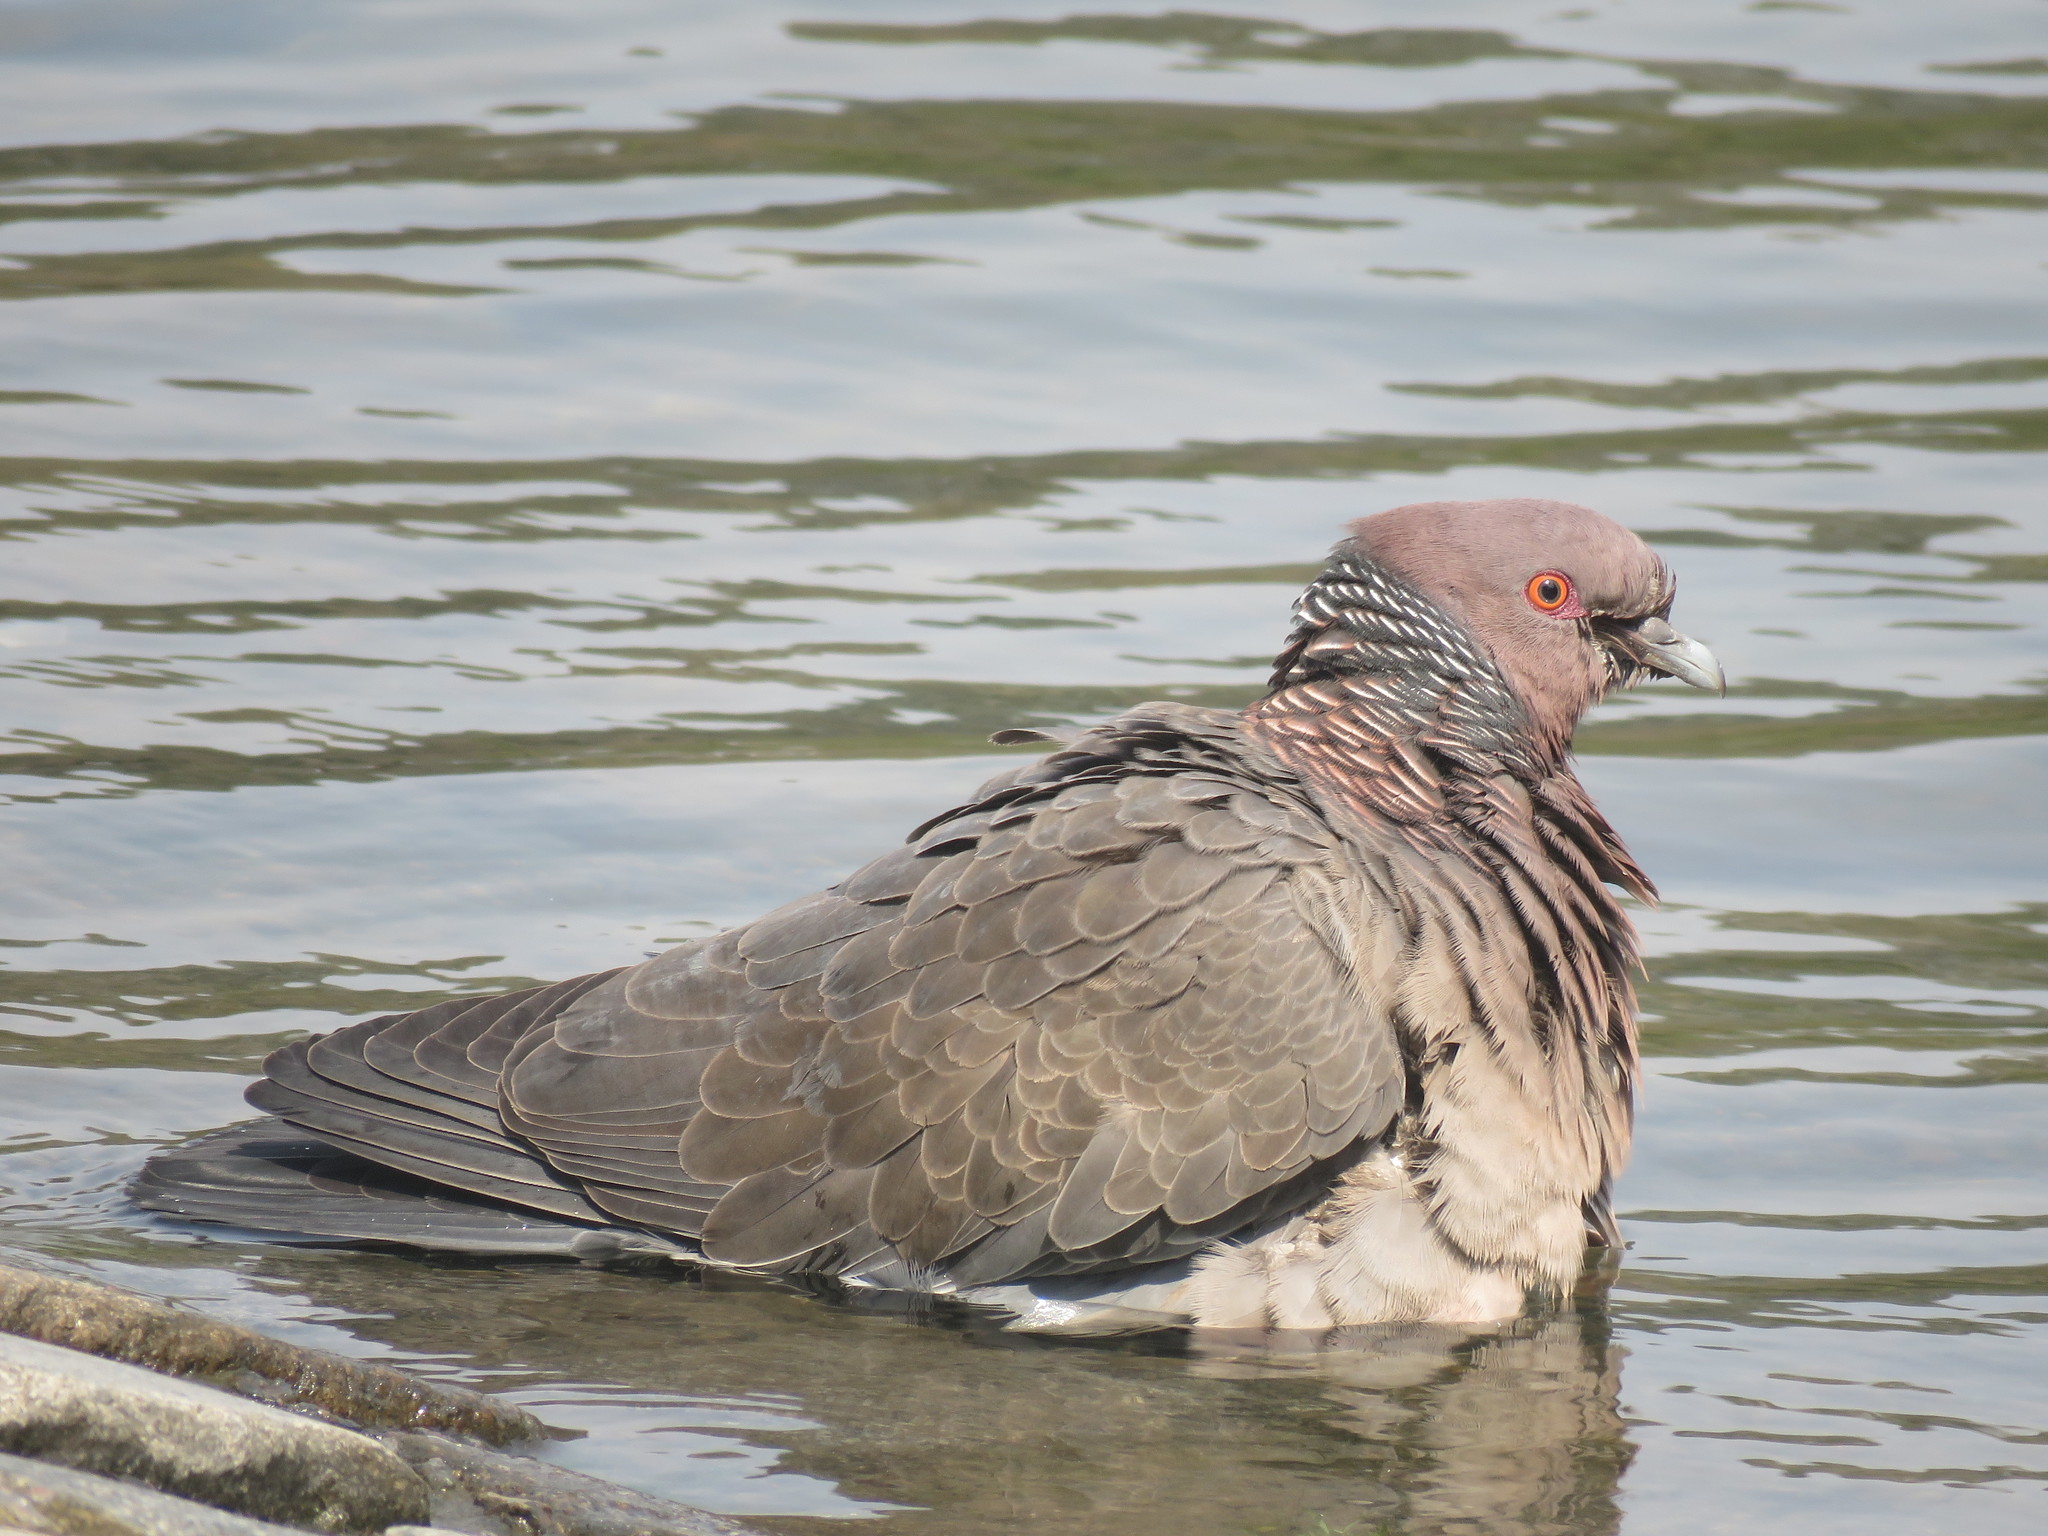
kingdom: Animalia
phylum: Chordata
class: Aves
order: Columbiformes
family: Columbidae
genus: Patagioenas
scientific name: Patagioenas picazuro
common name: Picazuro pigeon
